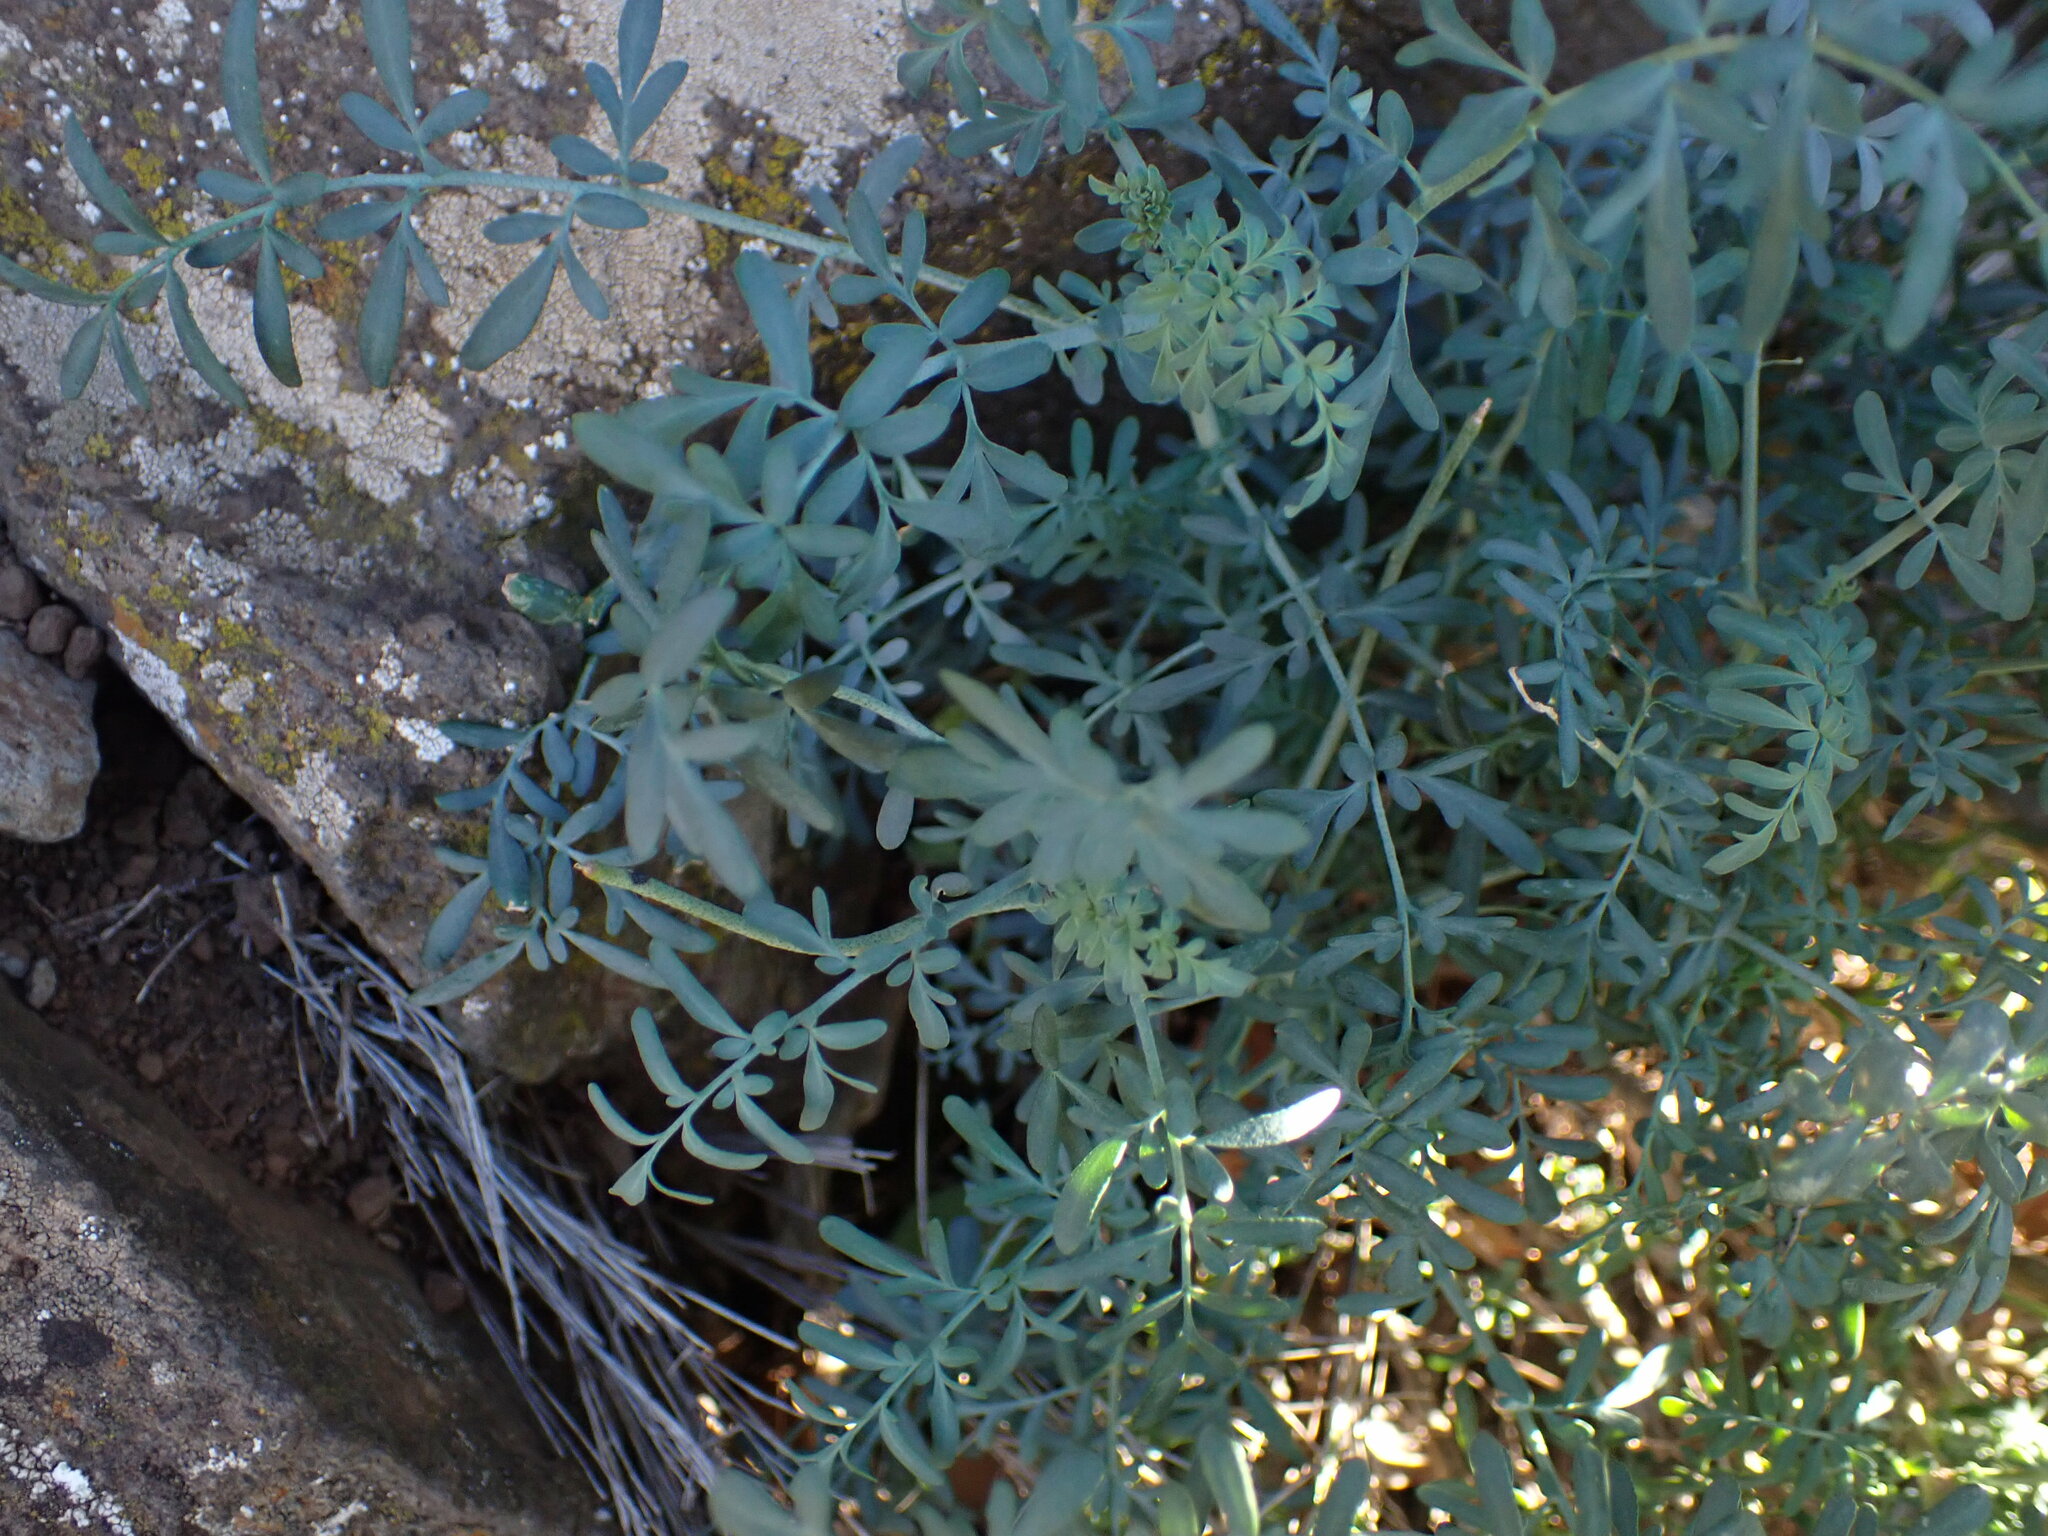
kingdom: Plantae
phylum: Tracheophyta
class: Magnoliopsida
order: Sapindales
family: Rutaceae
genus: Ruta
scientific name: Ruta angustifolia
